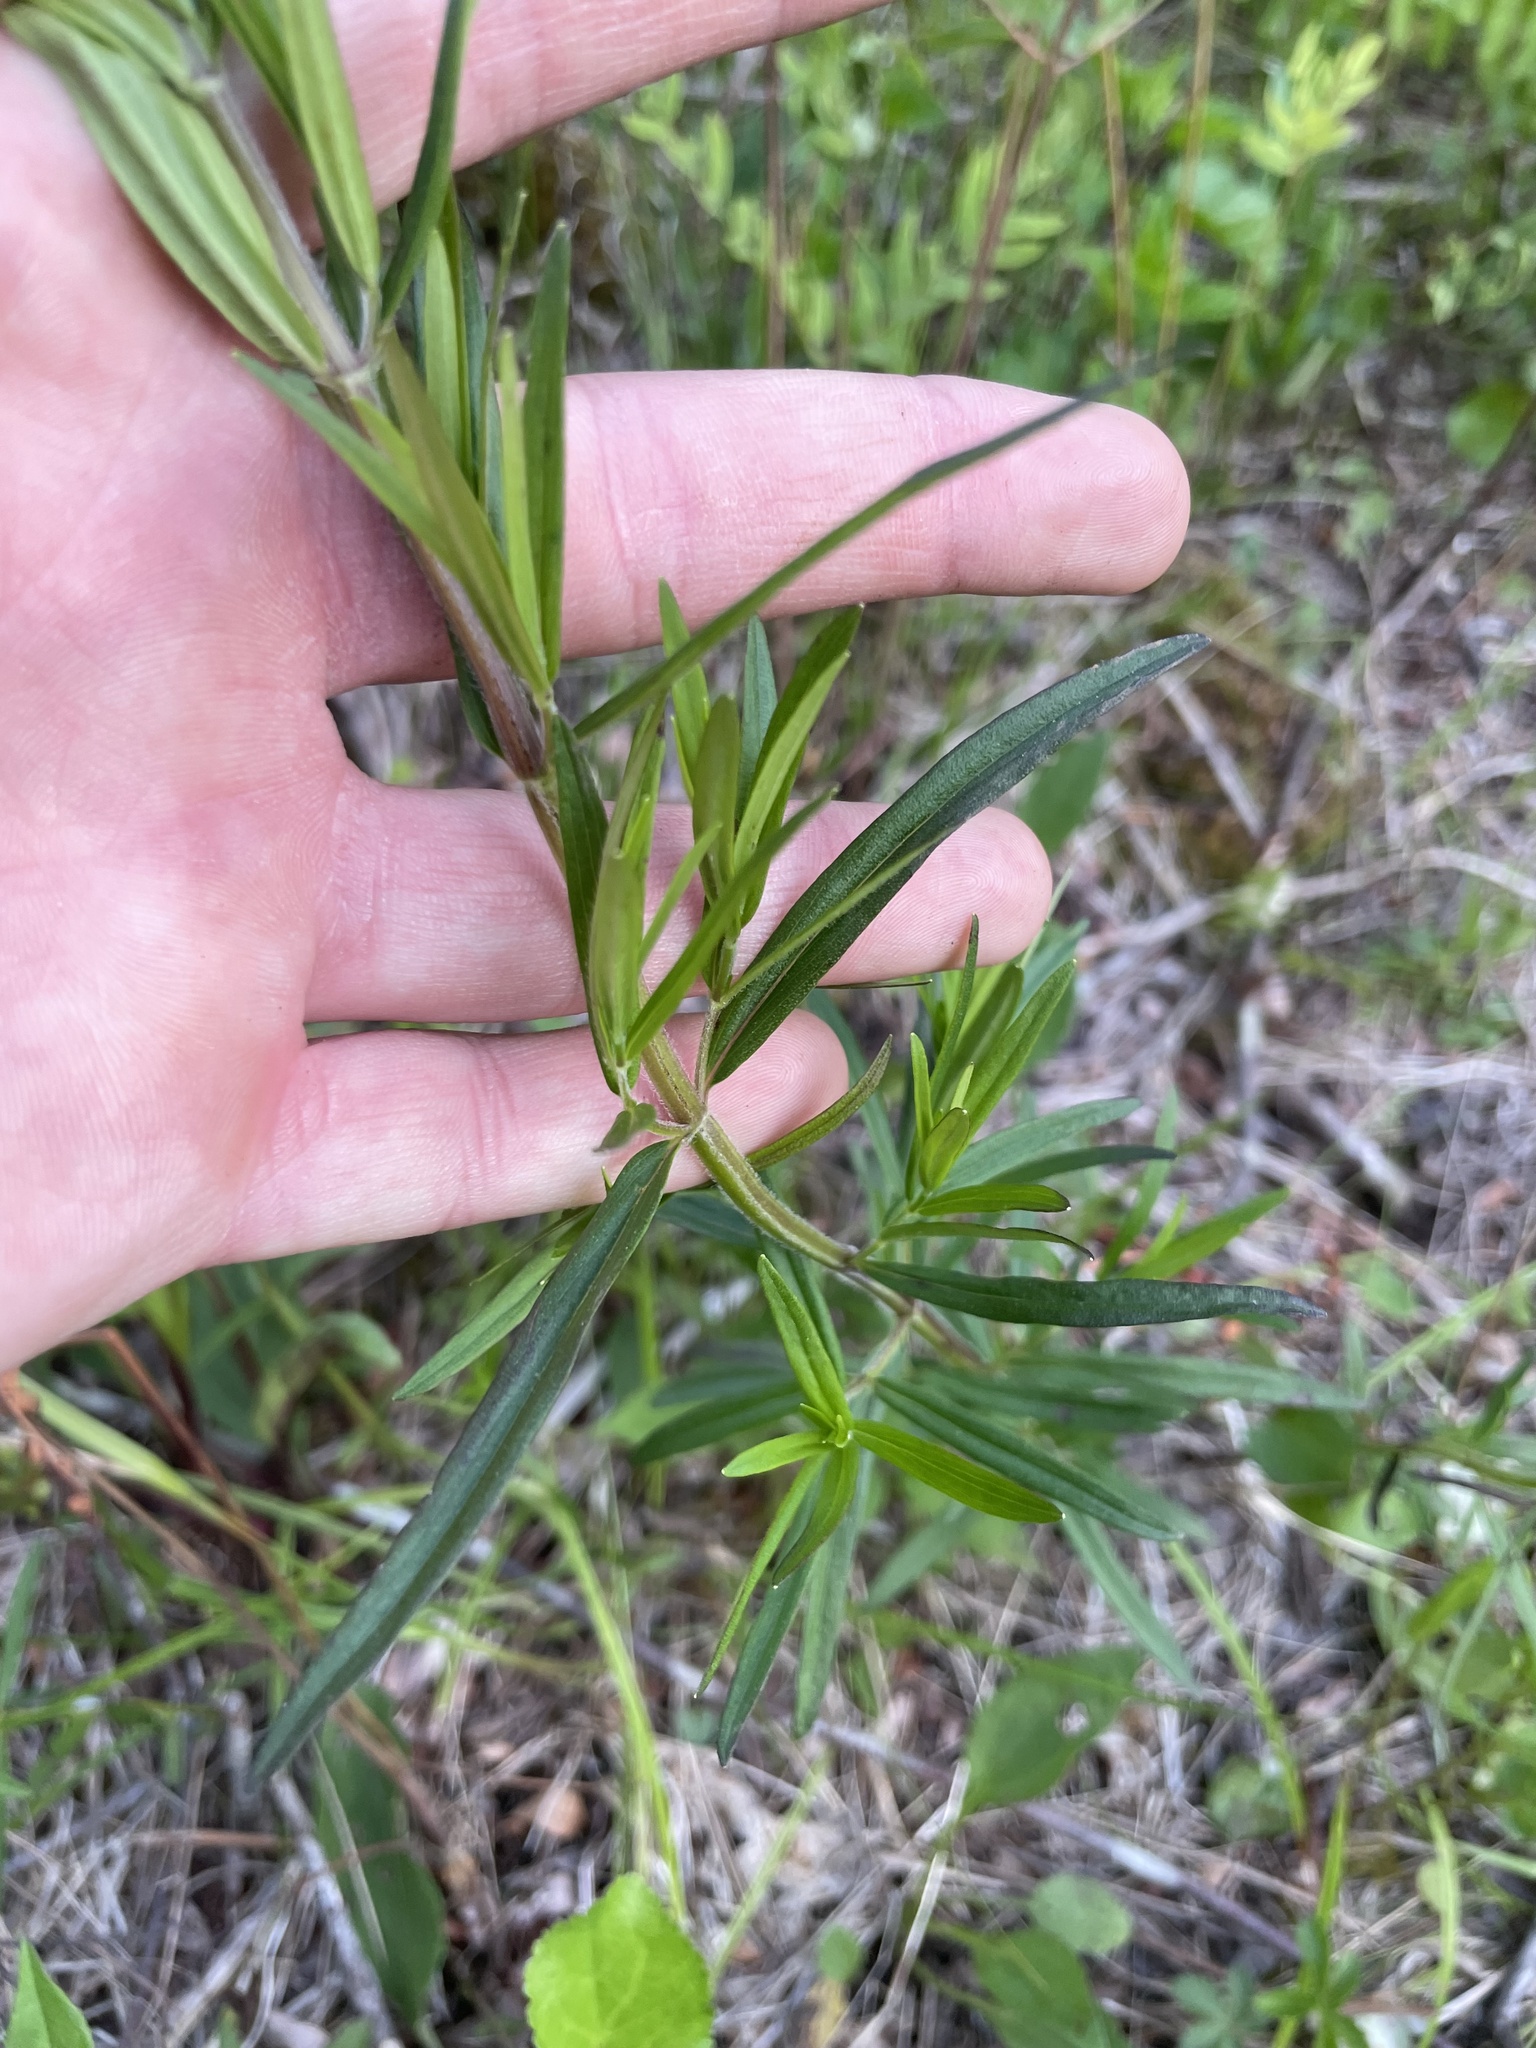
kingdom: Plantae
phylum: Tracheophyta
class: Magnoliopsida
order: Lamiales
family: Lamiaceae
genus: Pycnanthemum
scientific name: Pycnanthemum virginianum
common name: Virginia mountain-mint
